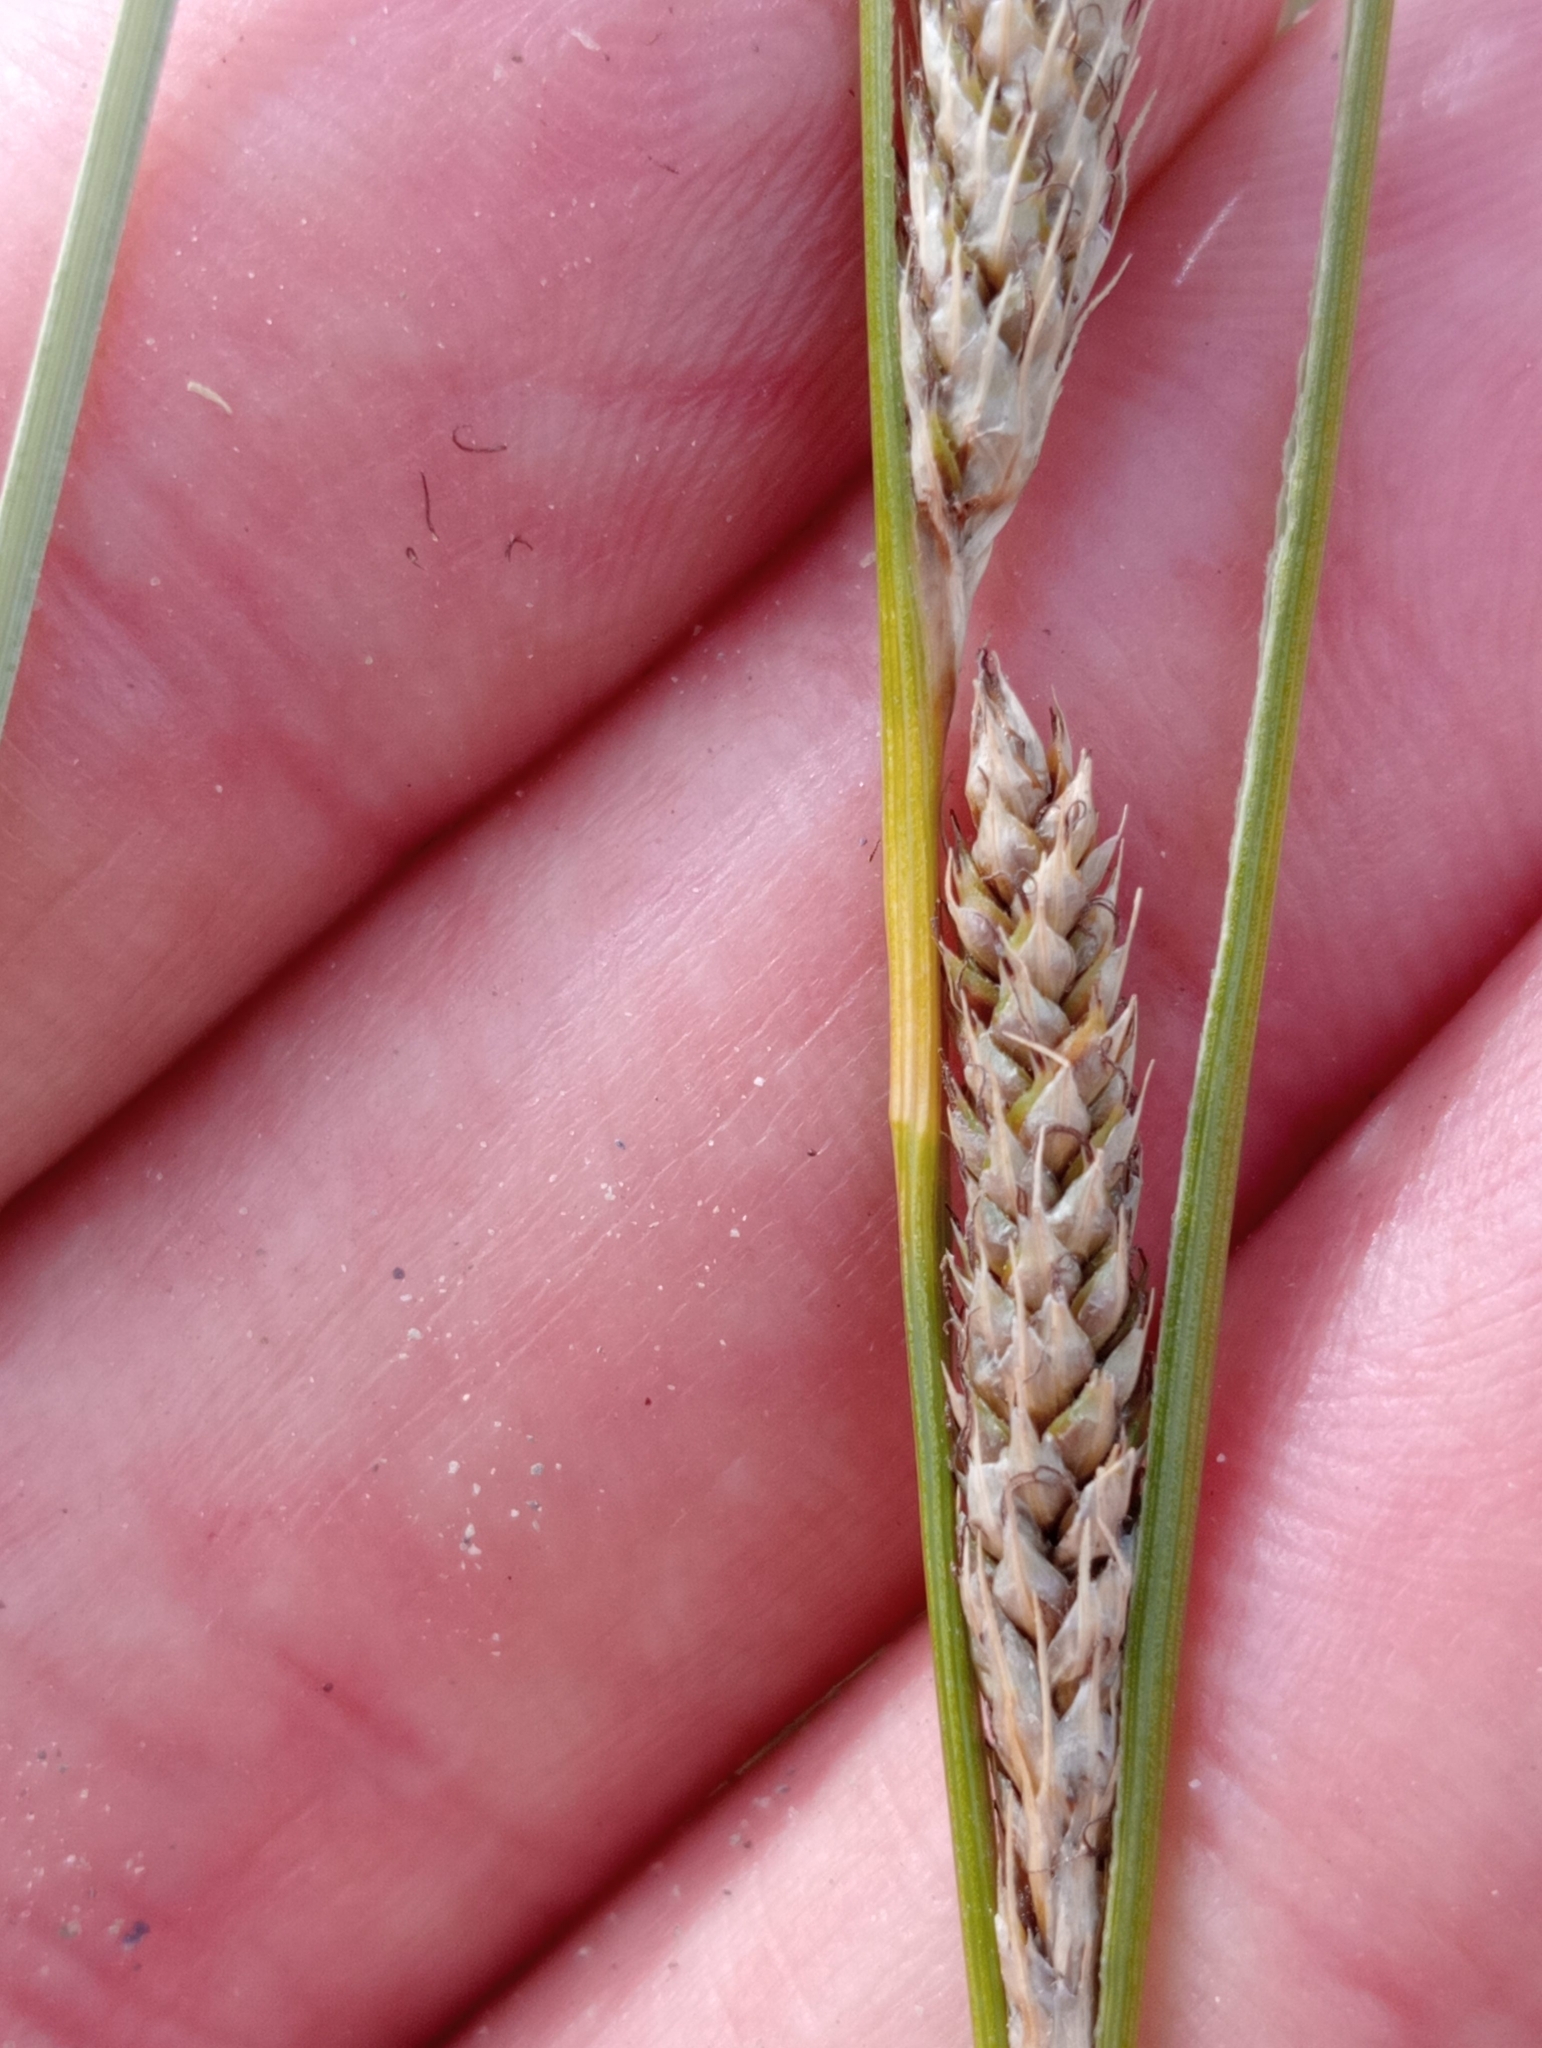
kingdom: Plantae
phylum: Tracheophyta
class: Liliopsida
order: Poales
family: Cyperaceae
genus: Carex
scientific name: Carex buchananii
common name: Leatherleaf sedge
